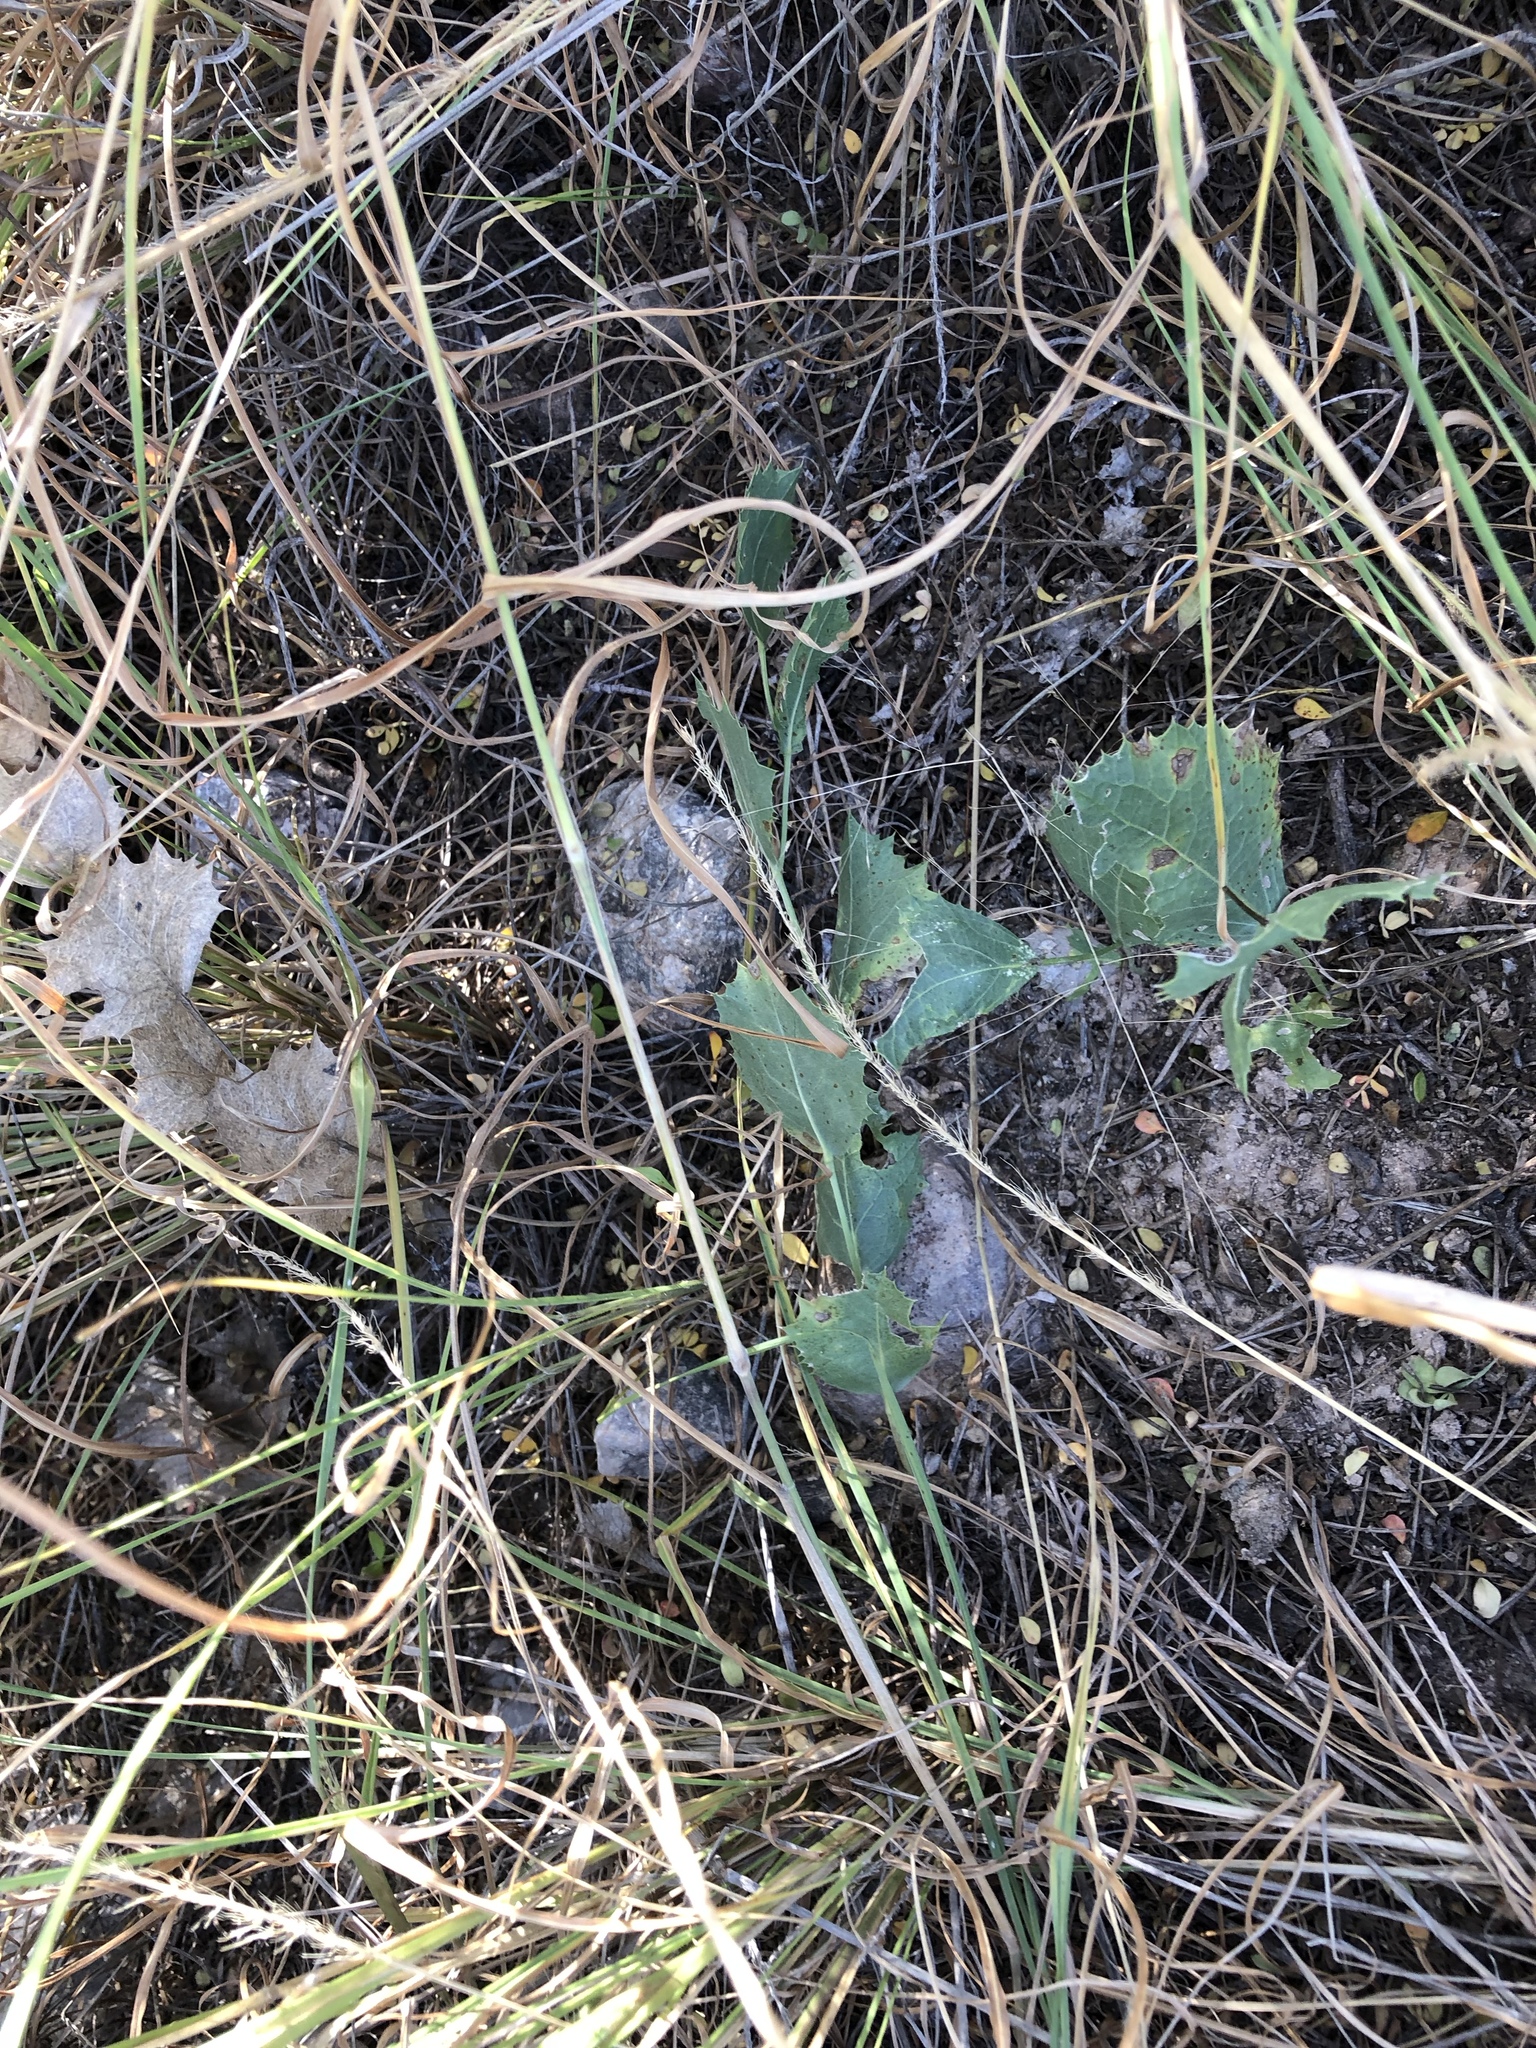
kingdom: Plantae
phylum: Tracheophyta
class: Magnoliopsida
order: Asterales
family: Asteraceae
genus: Acourtia
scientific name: Acourtia nana
